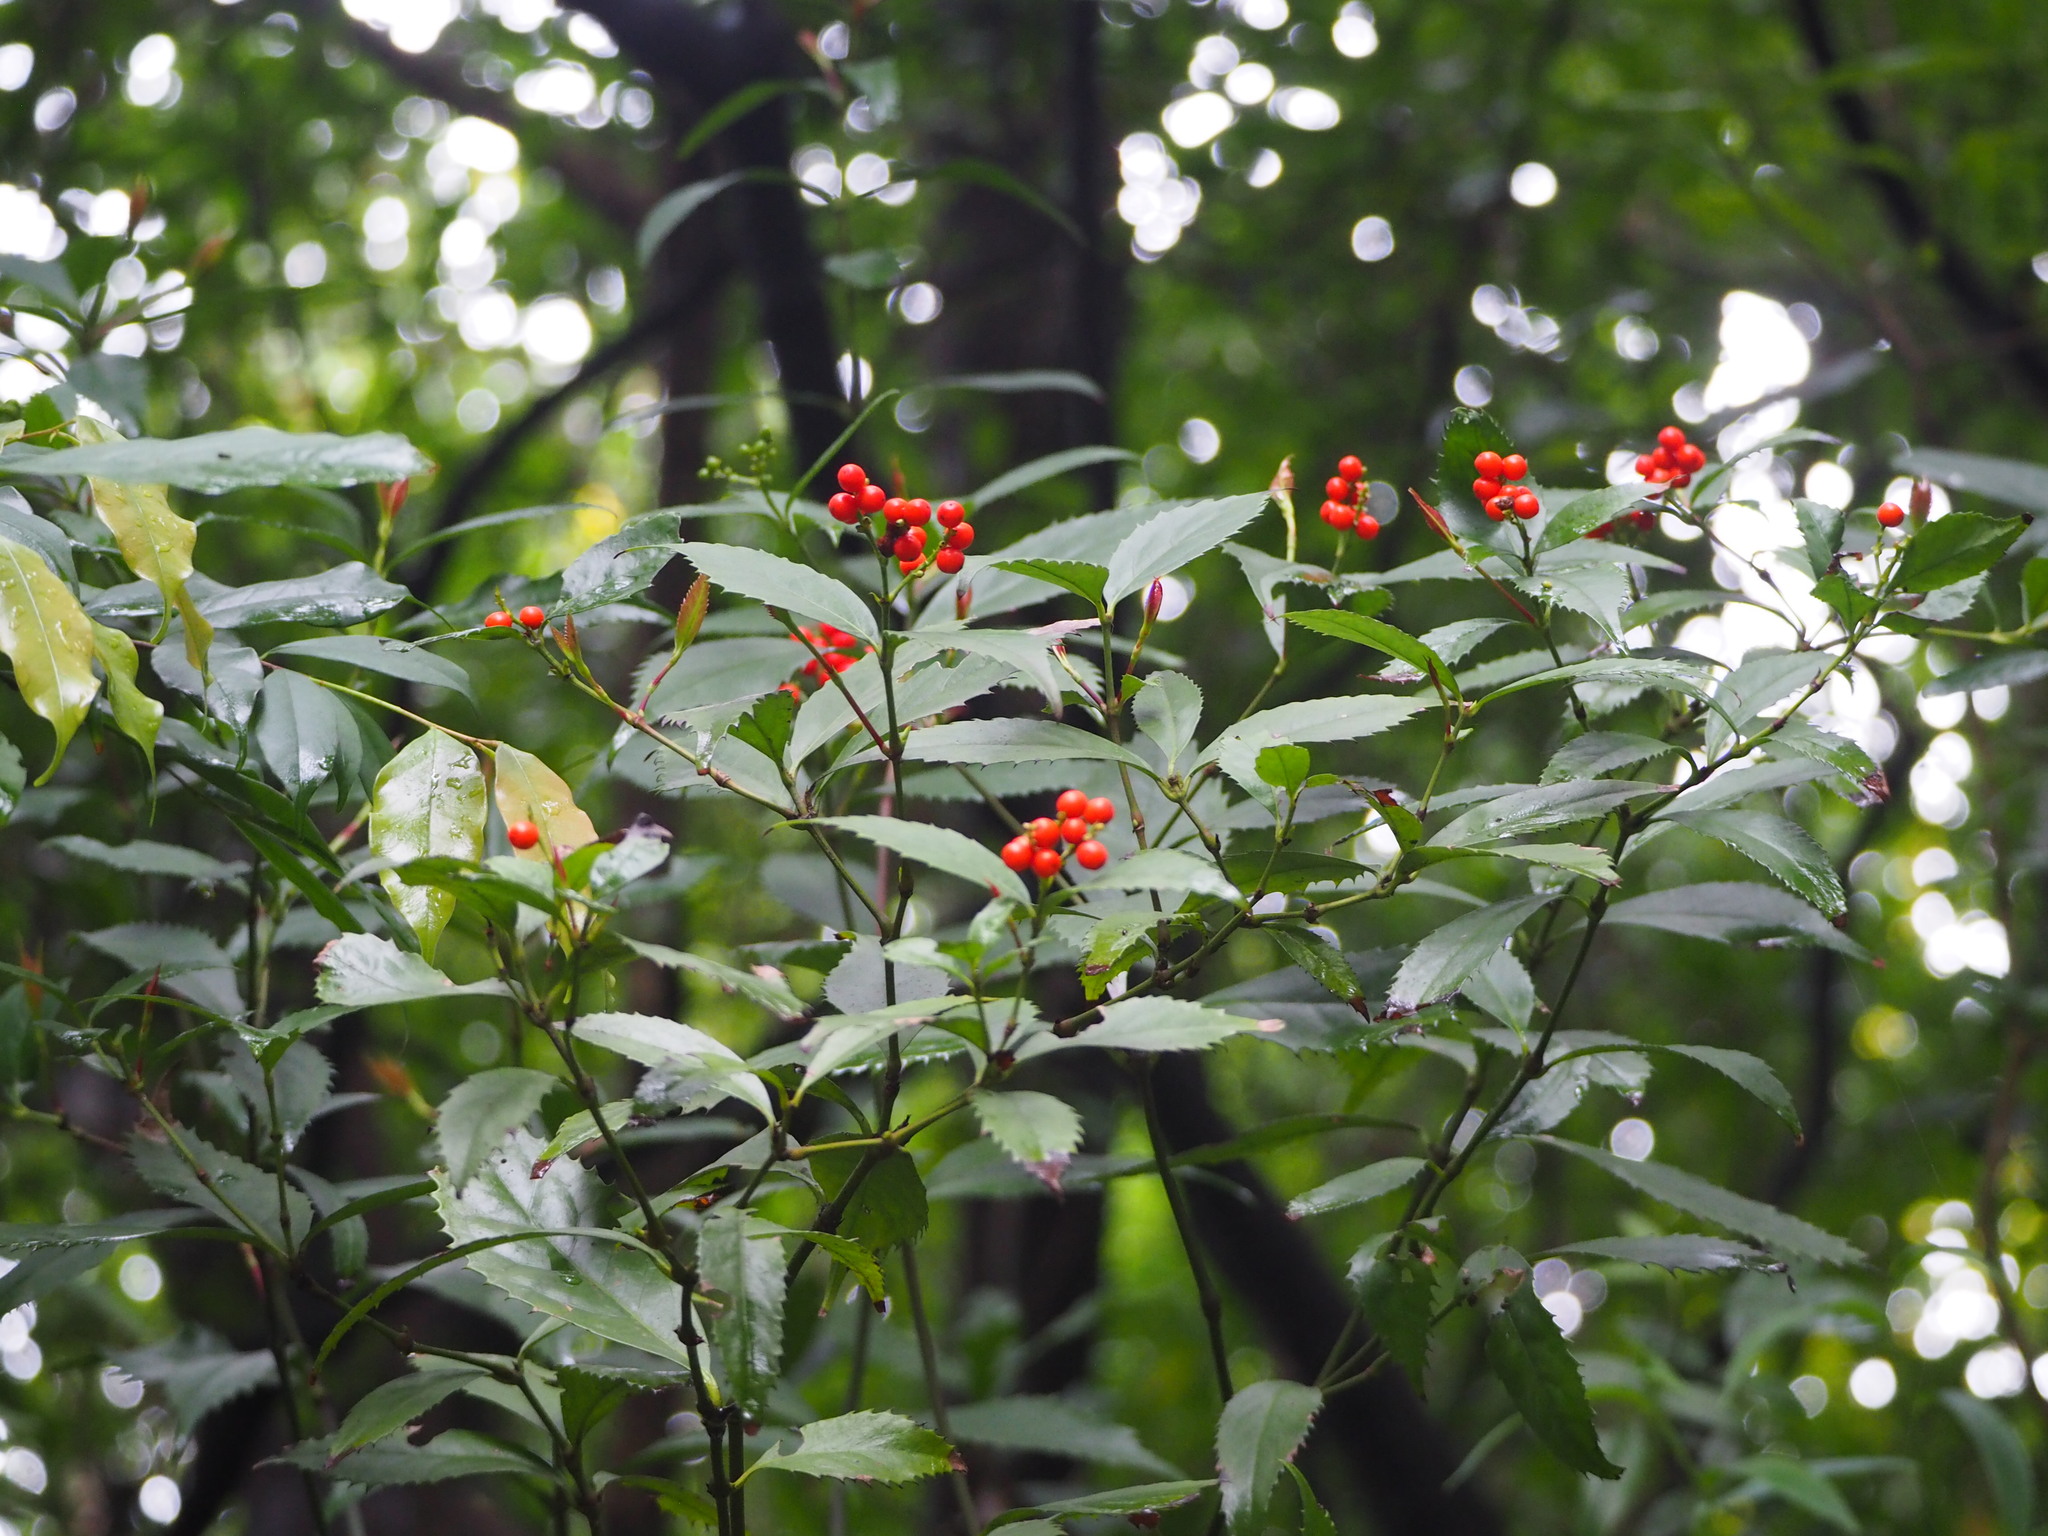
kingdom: Plantae
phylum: Tracheophyta
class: Magnoliopsida
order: Chloranthales
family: Chloranthaceae
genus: Sarcandra
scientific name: Sarcandra glabra
